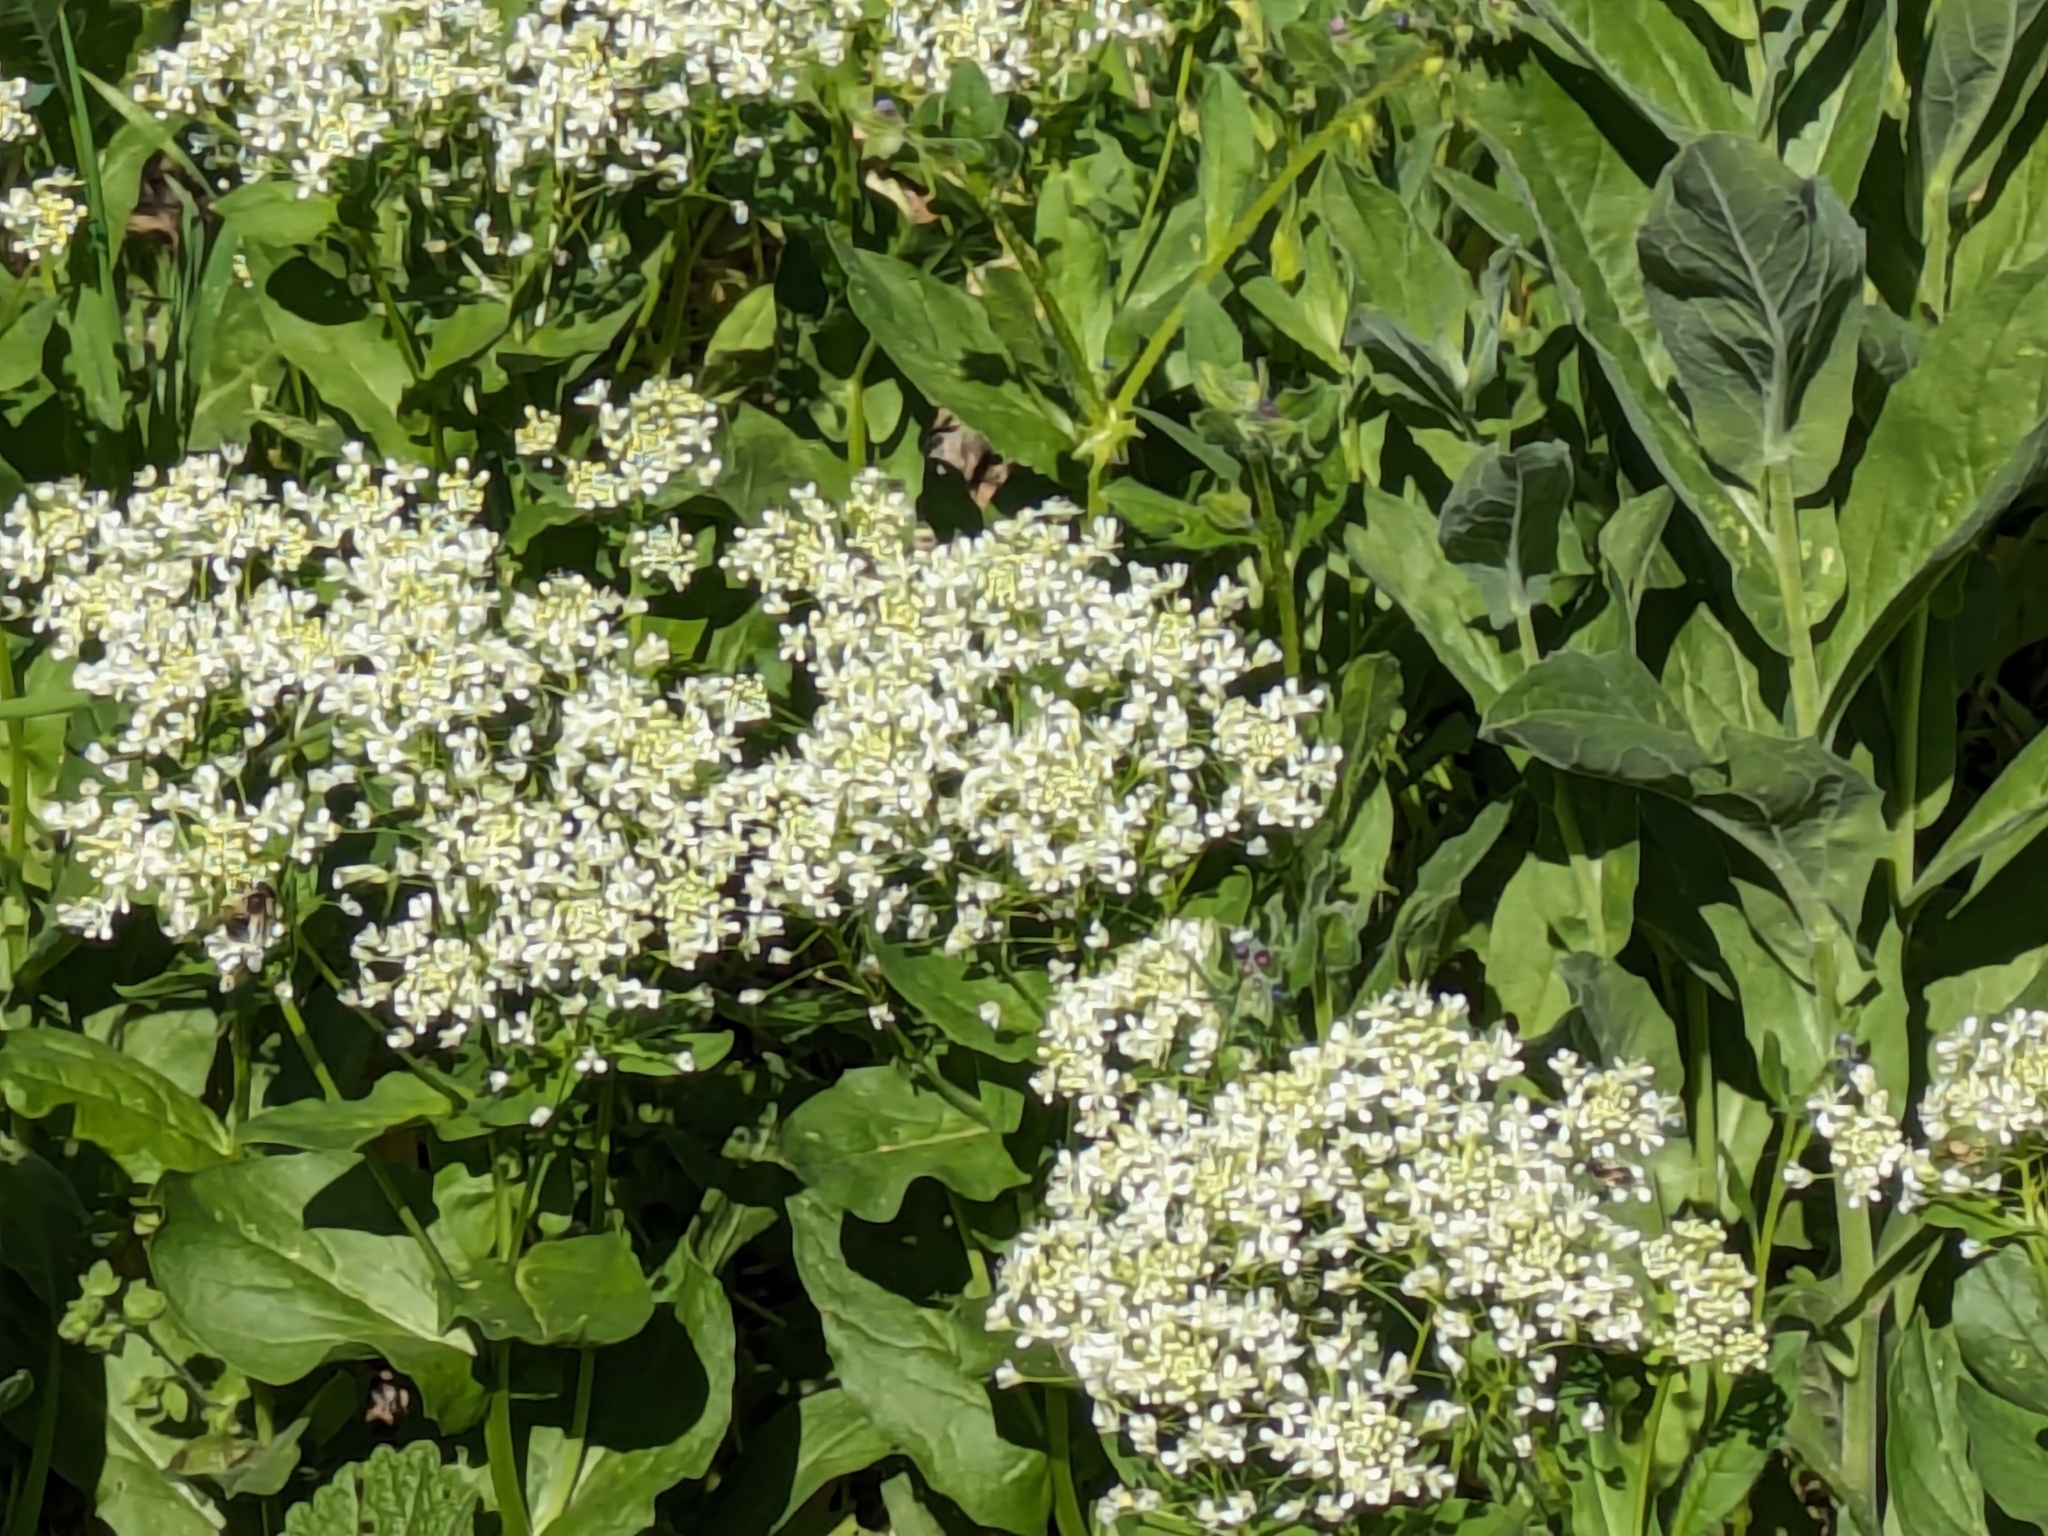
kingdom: Plantae
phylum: Tracheophyta
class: Magnoliopsida
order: Brassicales
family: Brassicaceae
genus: Lepidium
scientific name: Lepidium draba
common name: Hoary cress
